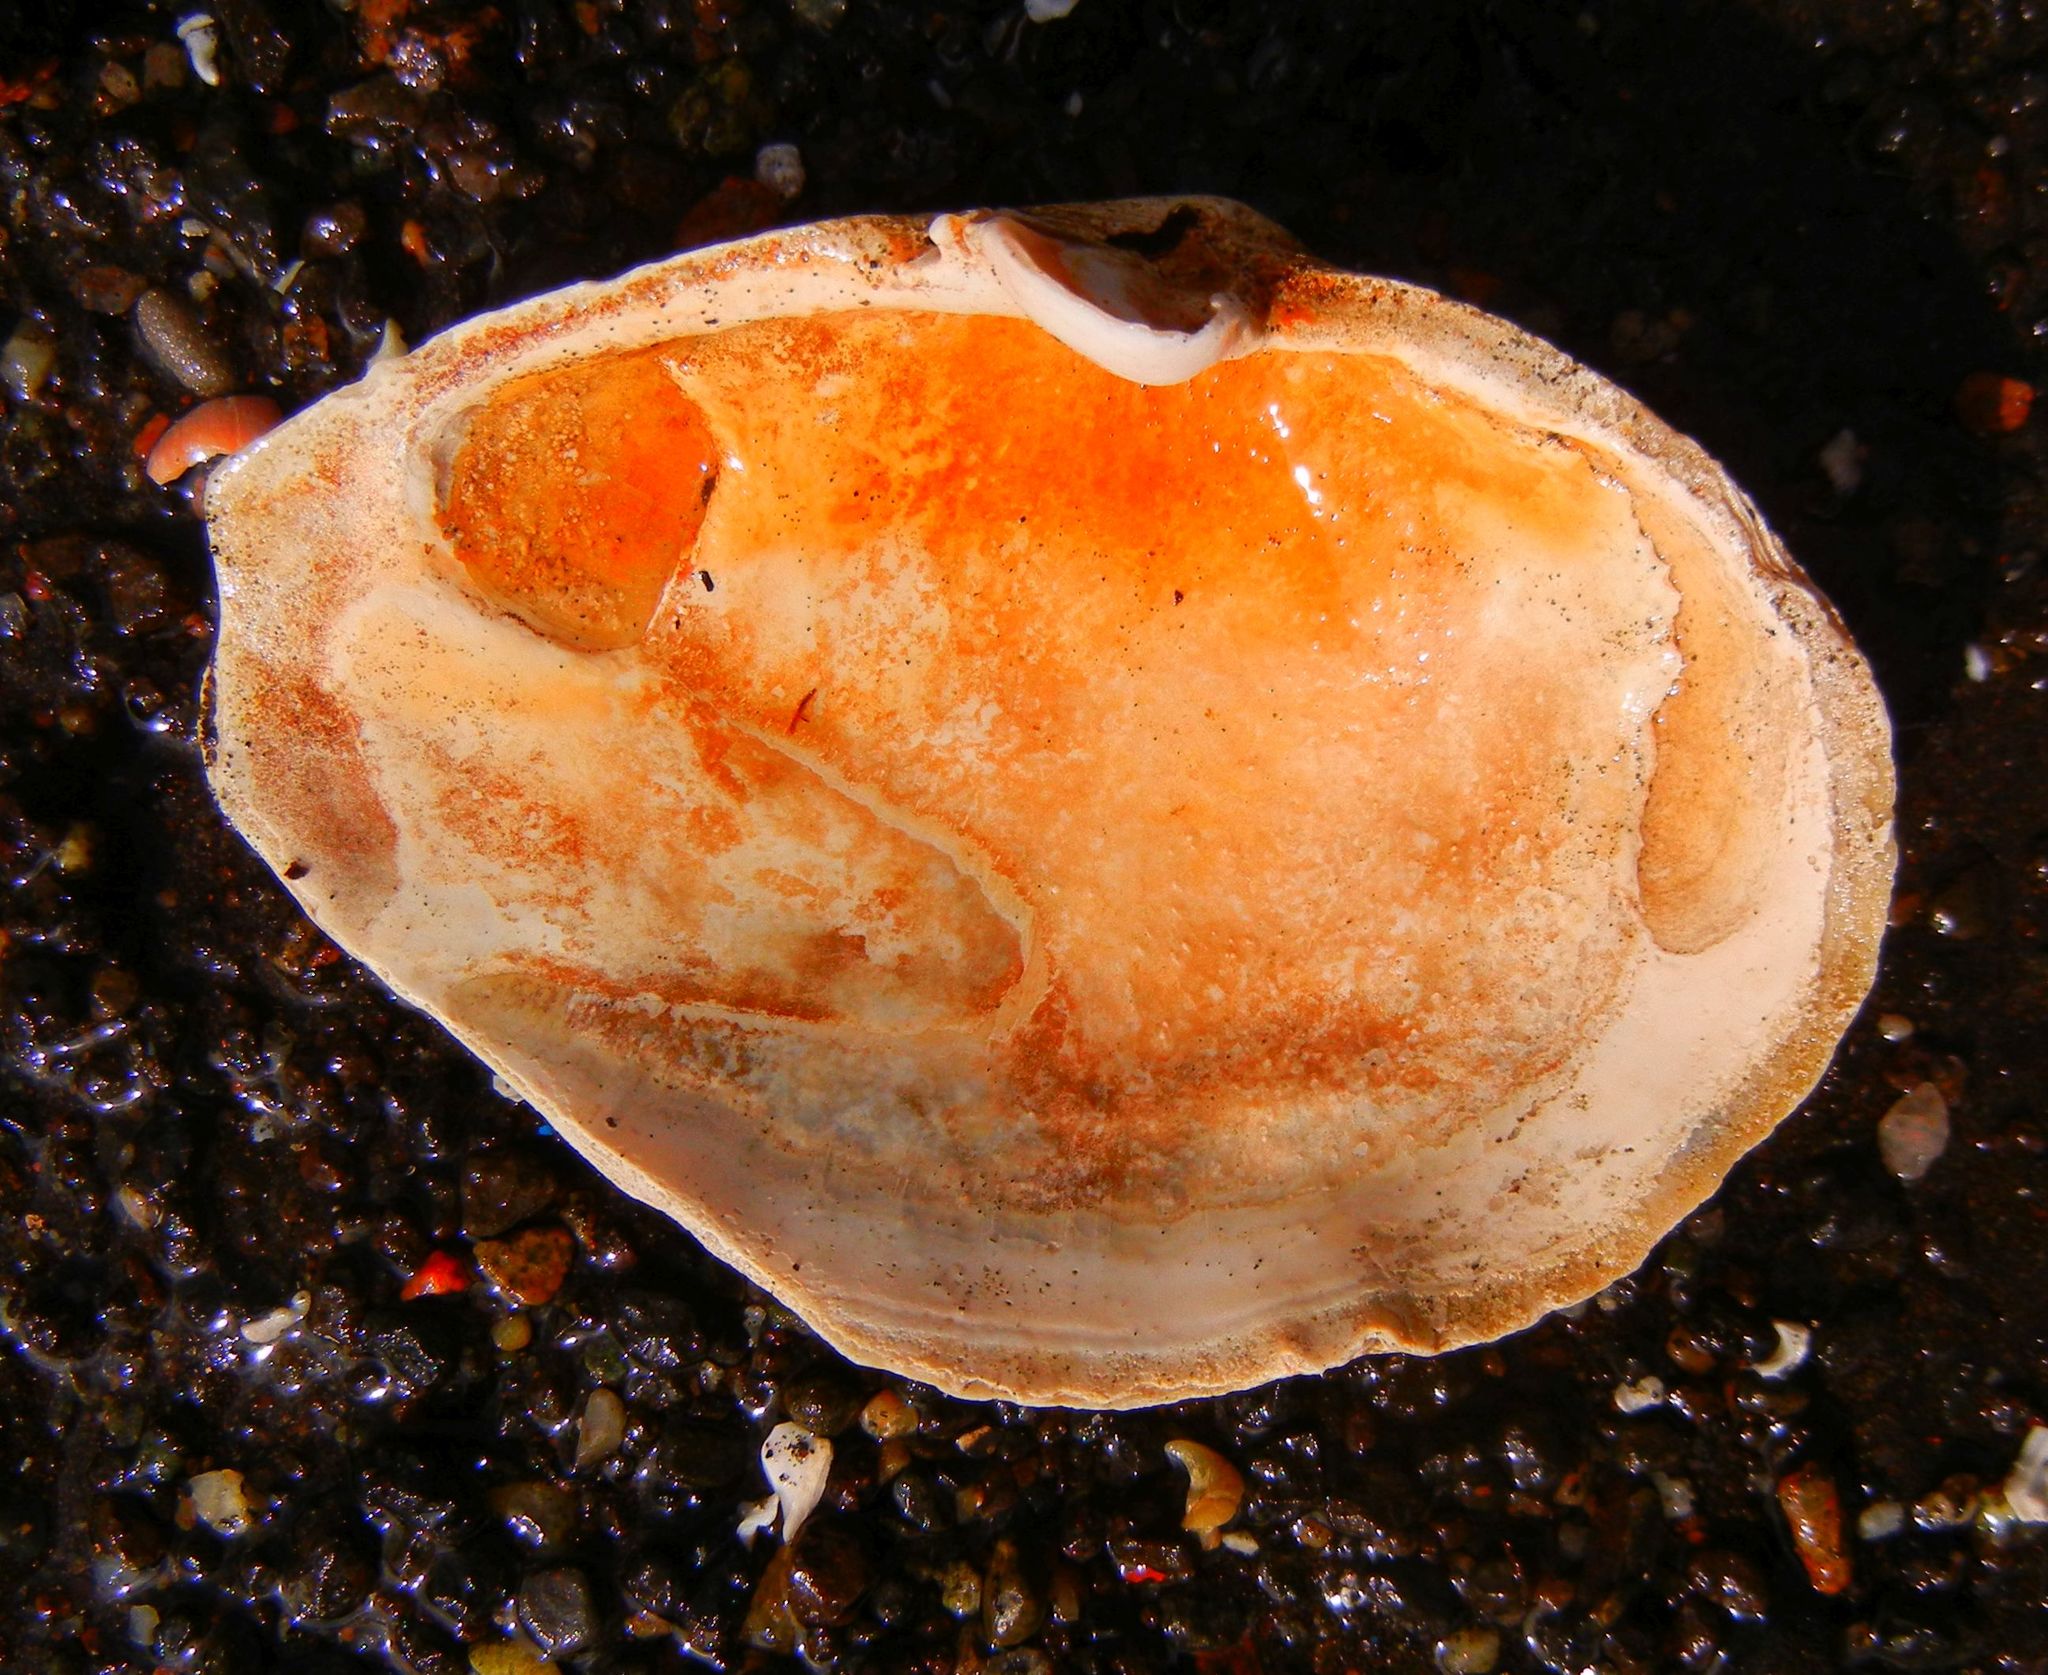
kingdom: Animalia
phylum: Mollusca
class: Bivalvia
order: Myida
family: Myidae
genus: Mya
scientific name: Mya arenaria
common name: Soft-shelled clam
